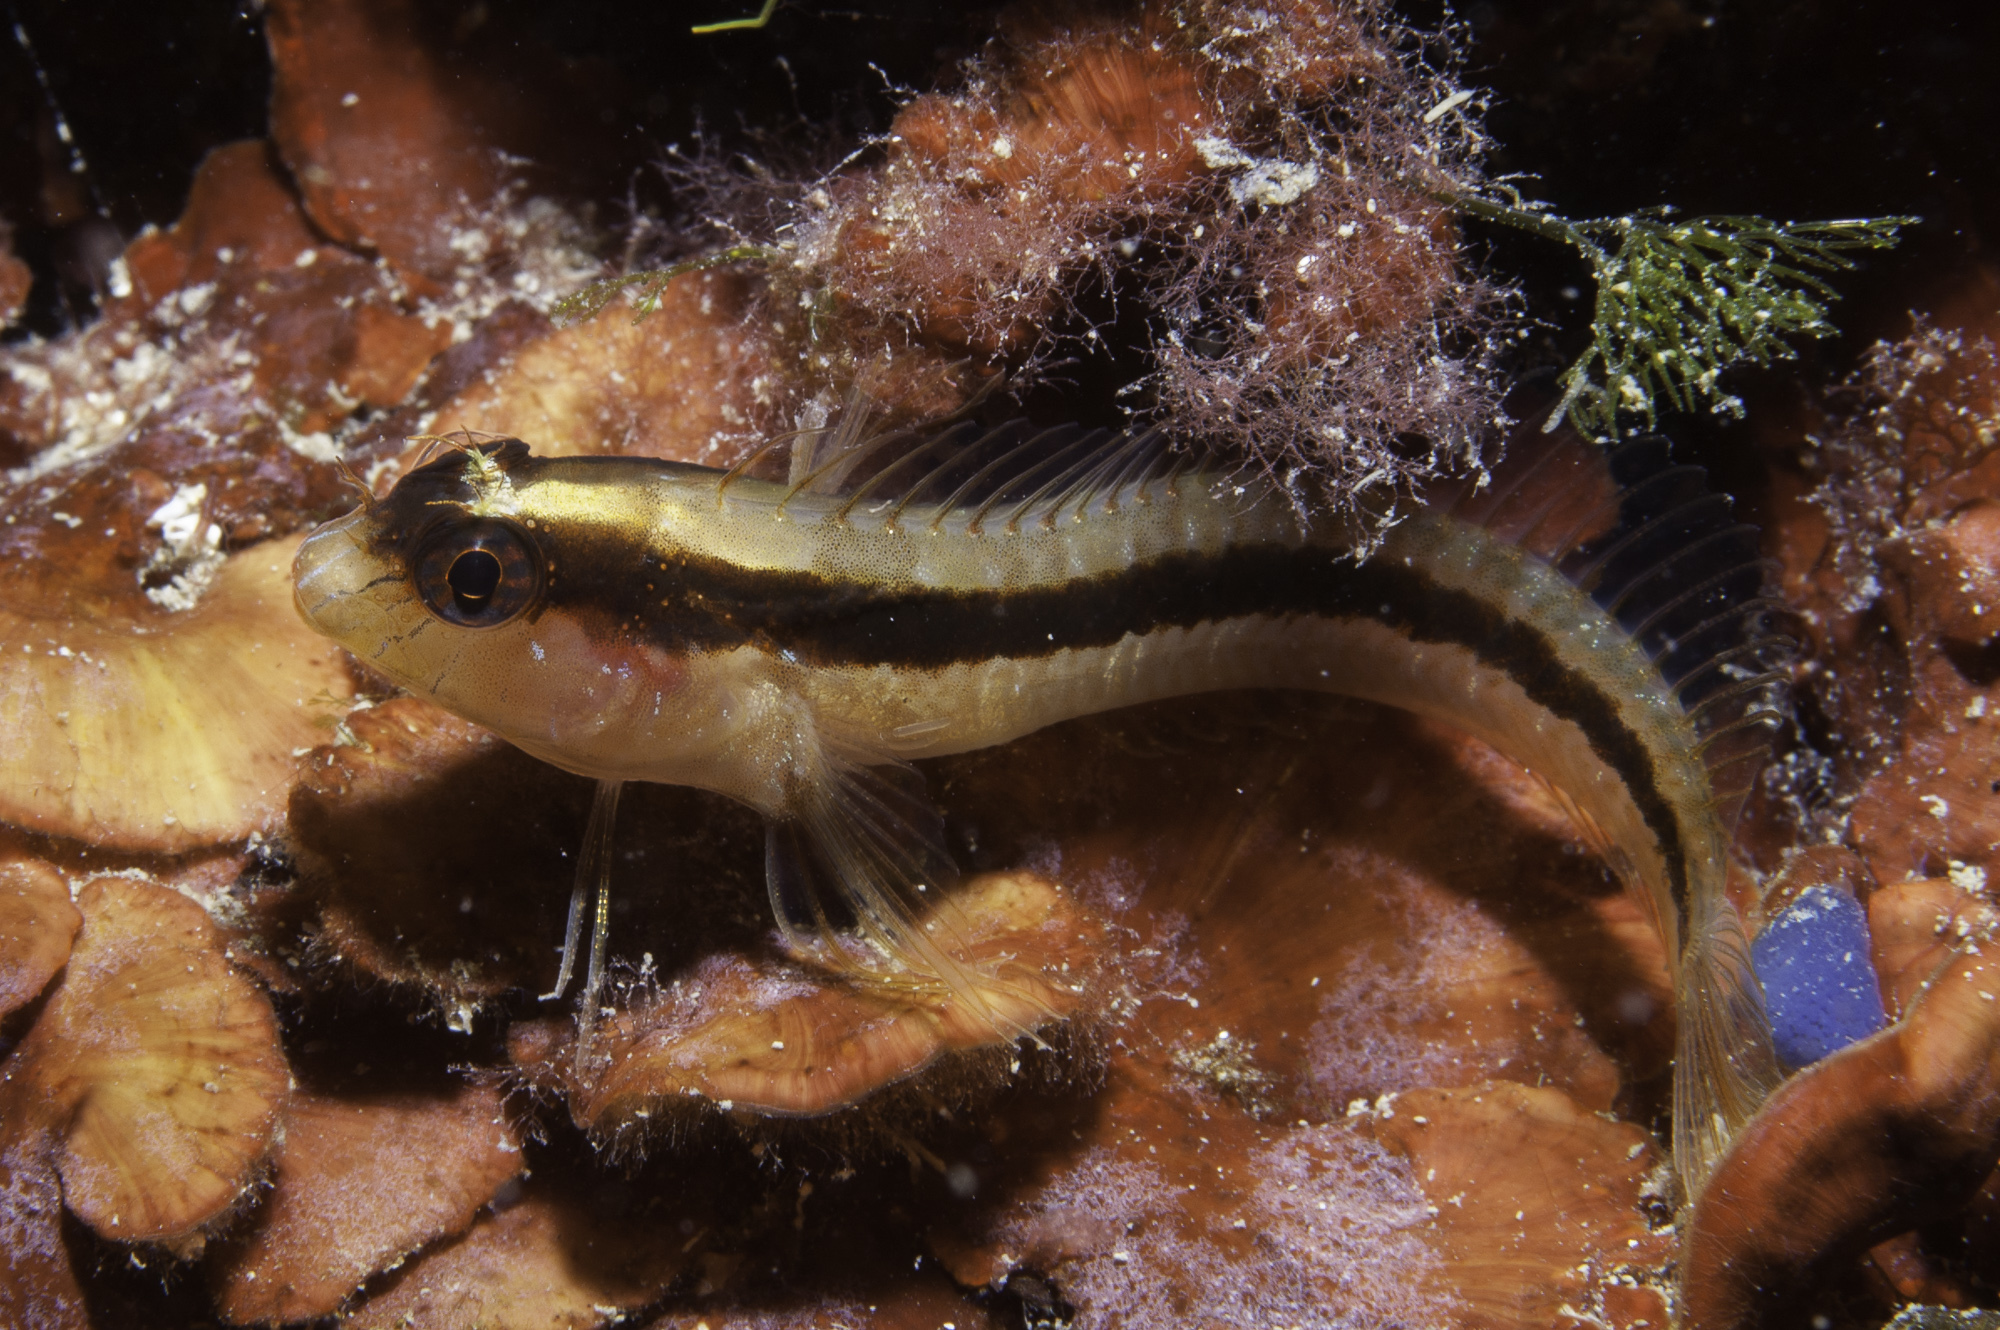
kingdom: Animalia
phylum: Chordata
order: Perciformes
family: Blenniidae
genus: Parablennius
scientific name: Parablennius rouxi
